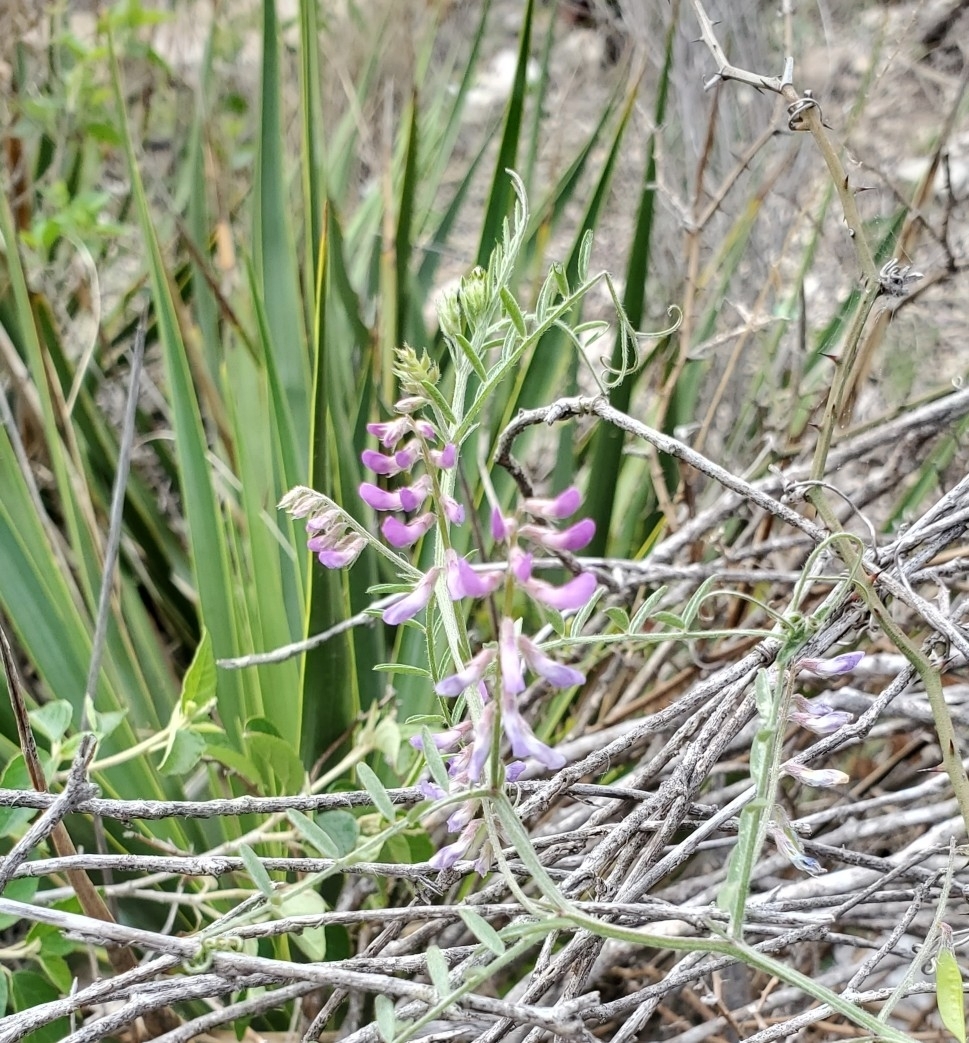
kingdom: Plantae
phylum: Tracheophyta
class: Magnoliopsida
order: Fabales
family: Fabaceae
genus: Vicia
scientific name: Vicia ludoviciana
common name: Louisiana vetch
